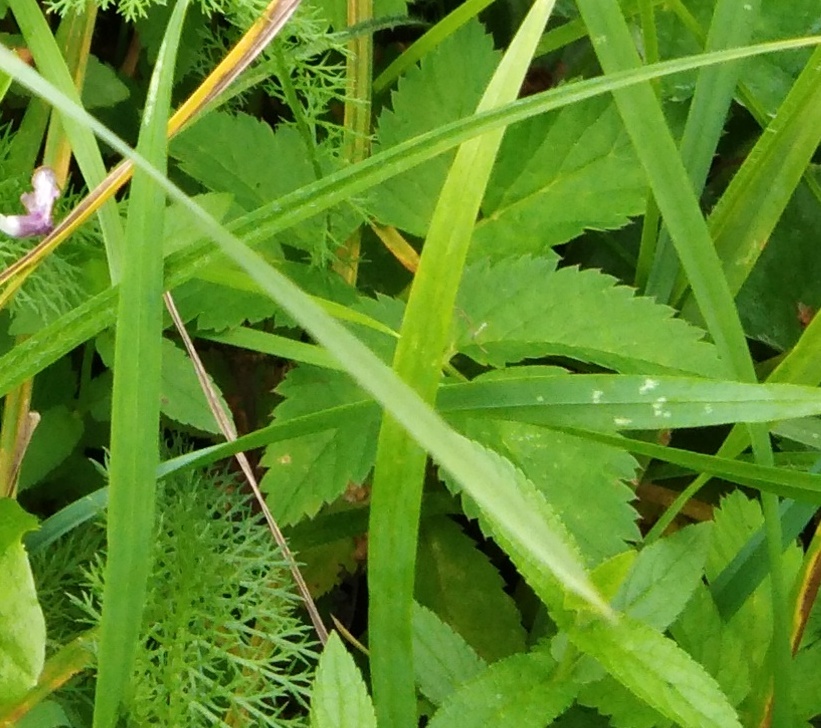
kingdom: Plantae
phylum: Tracheophyta
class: Magnoliopsida
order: Apiales
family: Apiaceae
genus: Aegopodium
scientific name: Aegopodium podagraria
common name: Ground-elder
